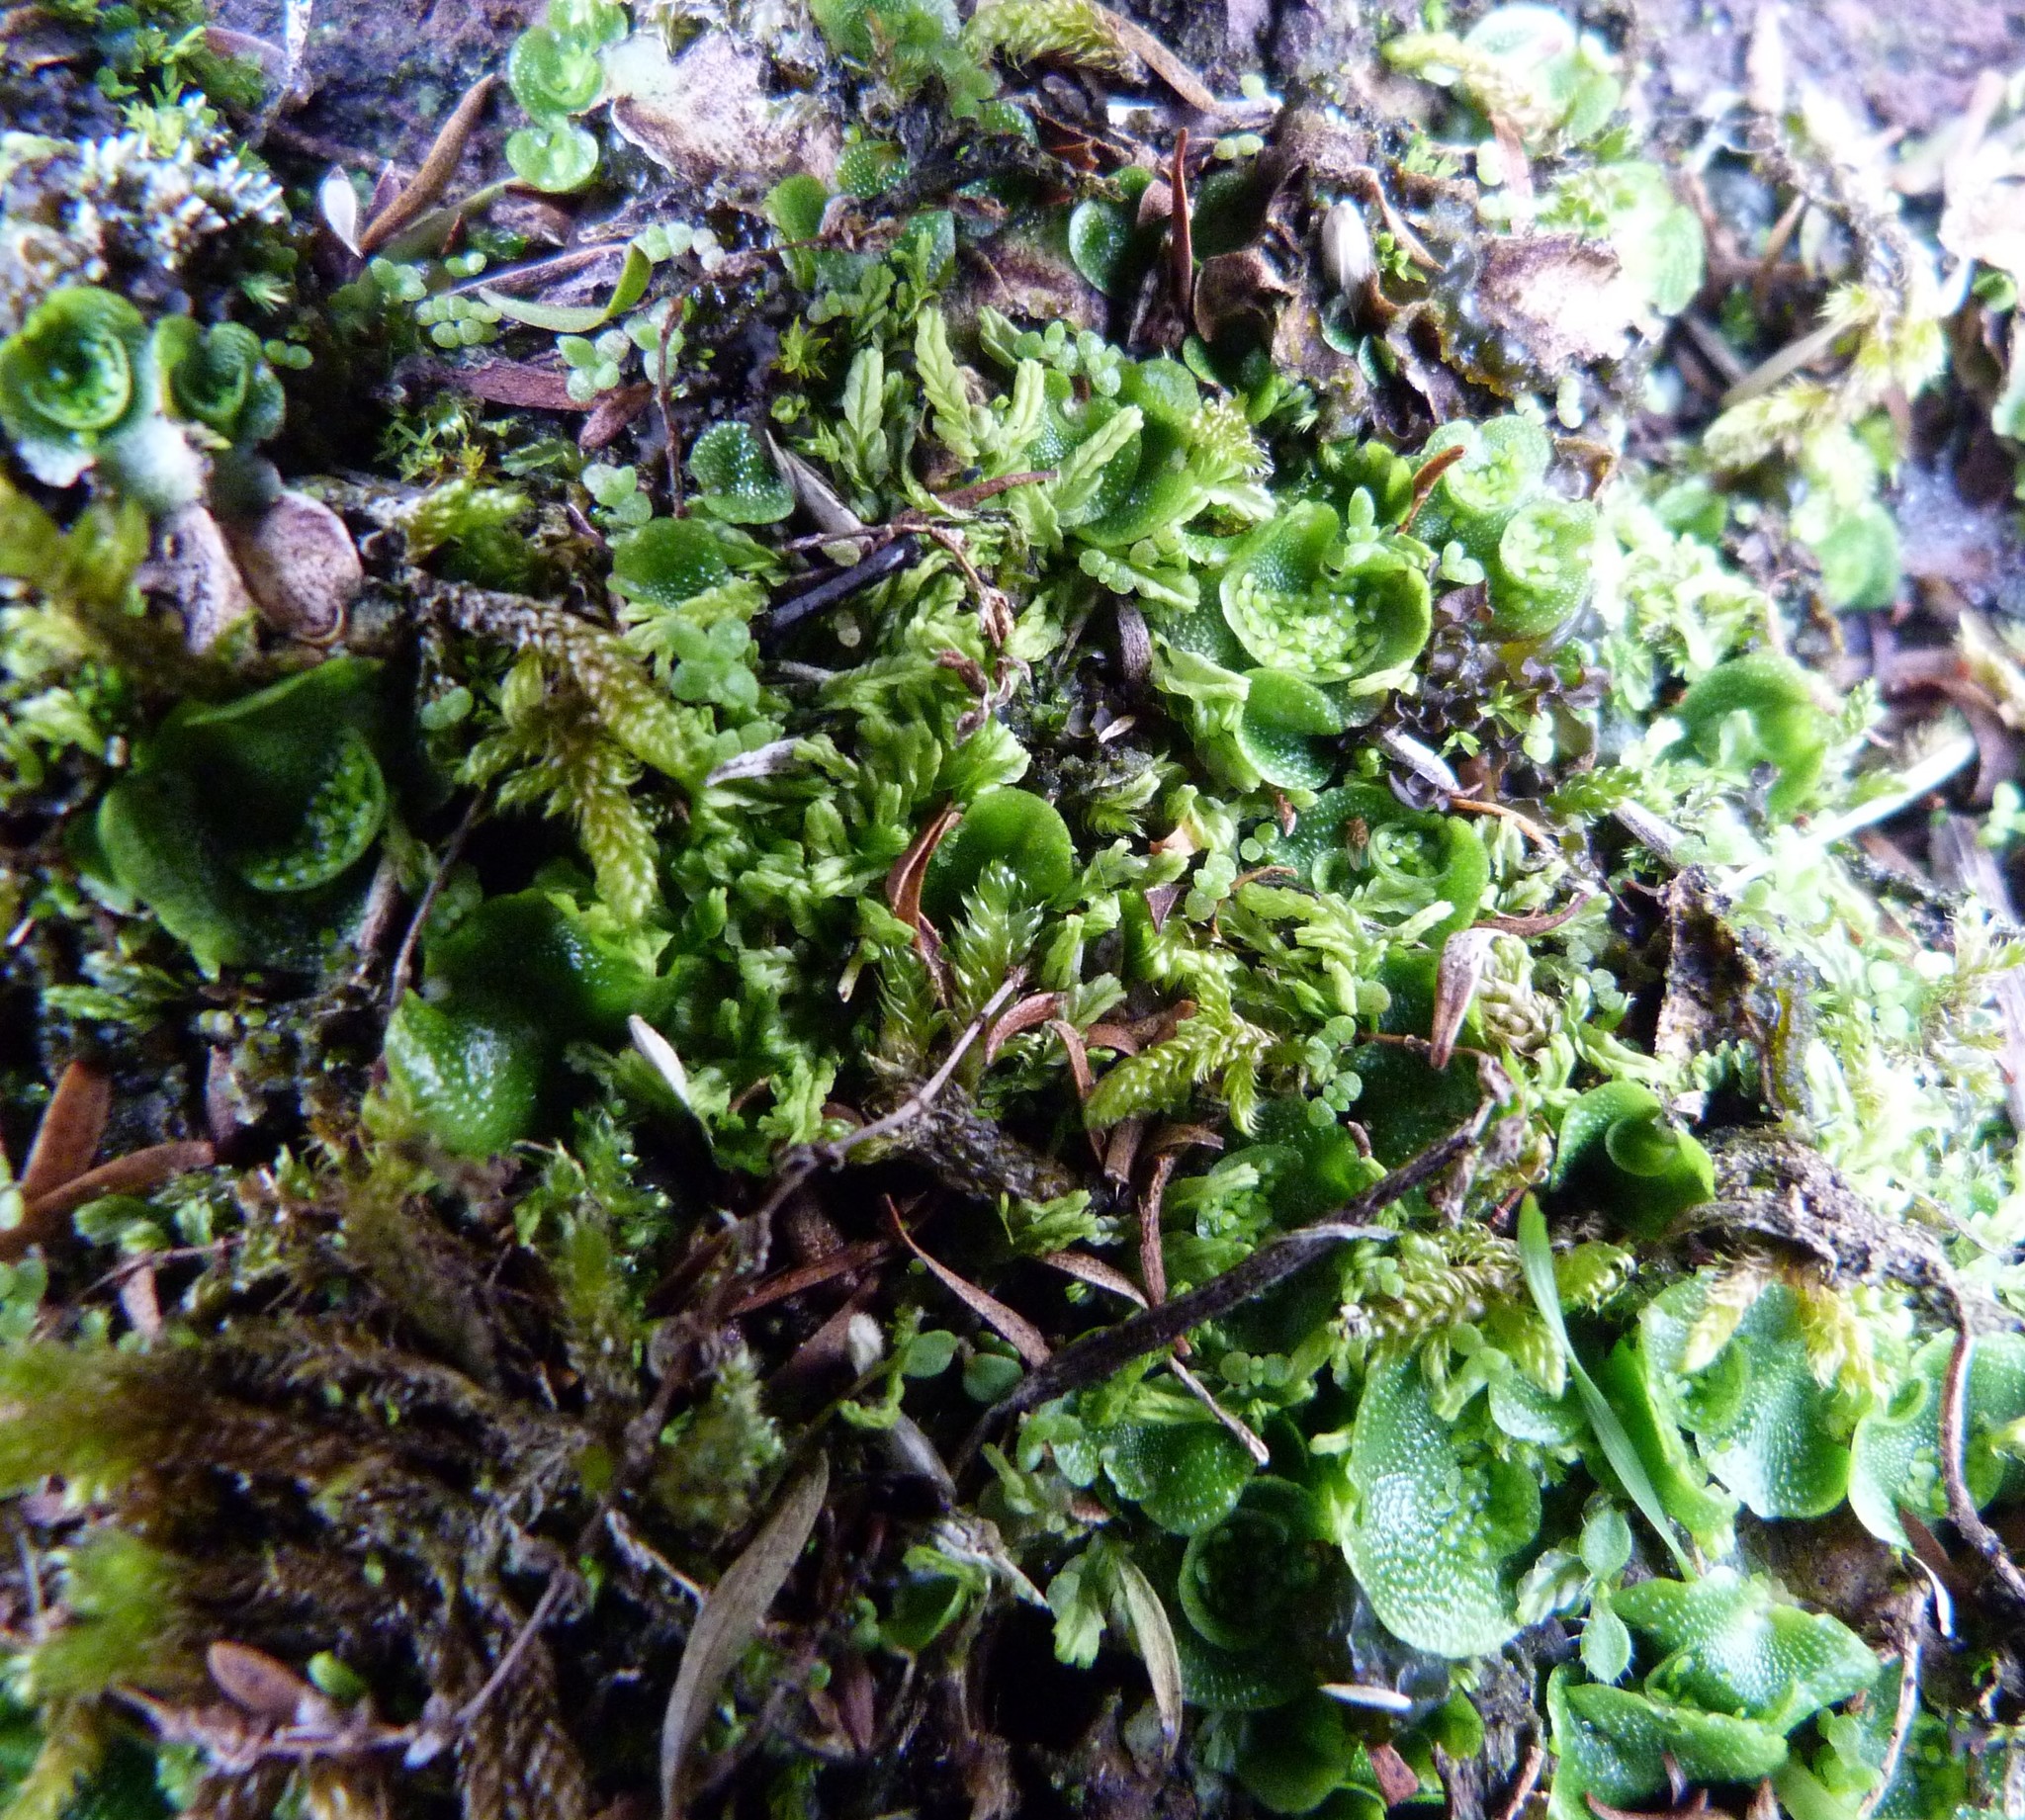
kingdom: Plantae
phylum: Marchantiophyta
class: Marchantiopsida
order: Lunulariales
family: Lunulariaceae
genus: Lunularia
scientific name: Lunularia cruciata
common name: Crescent-cup liverwort
